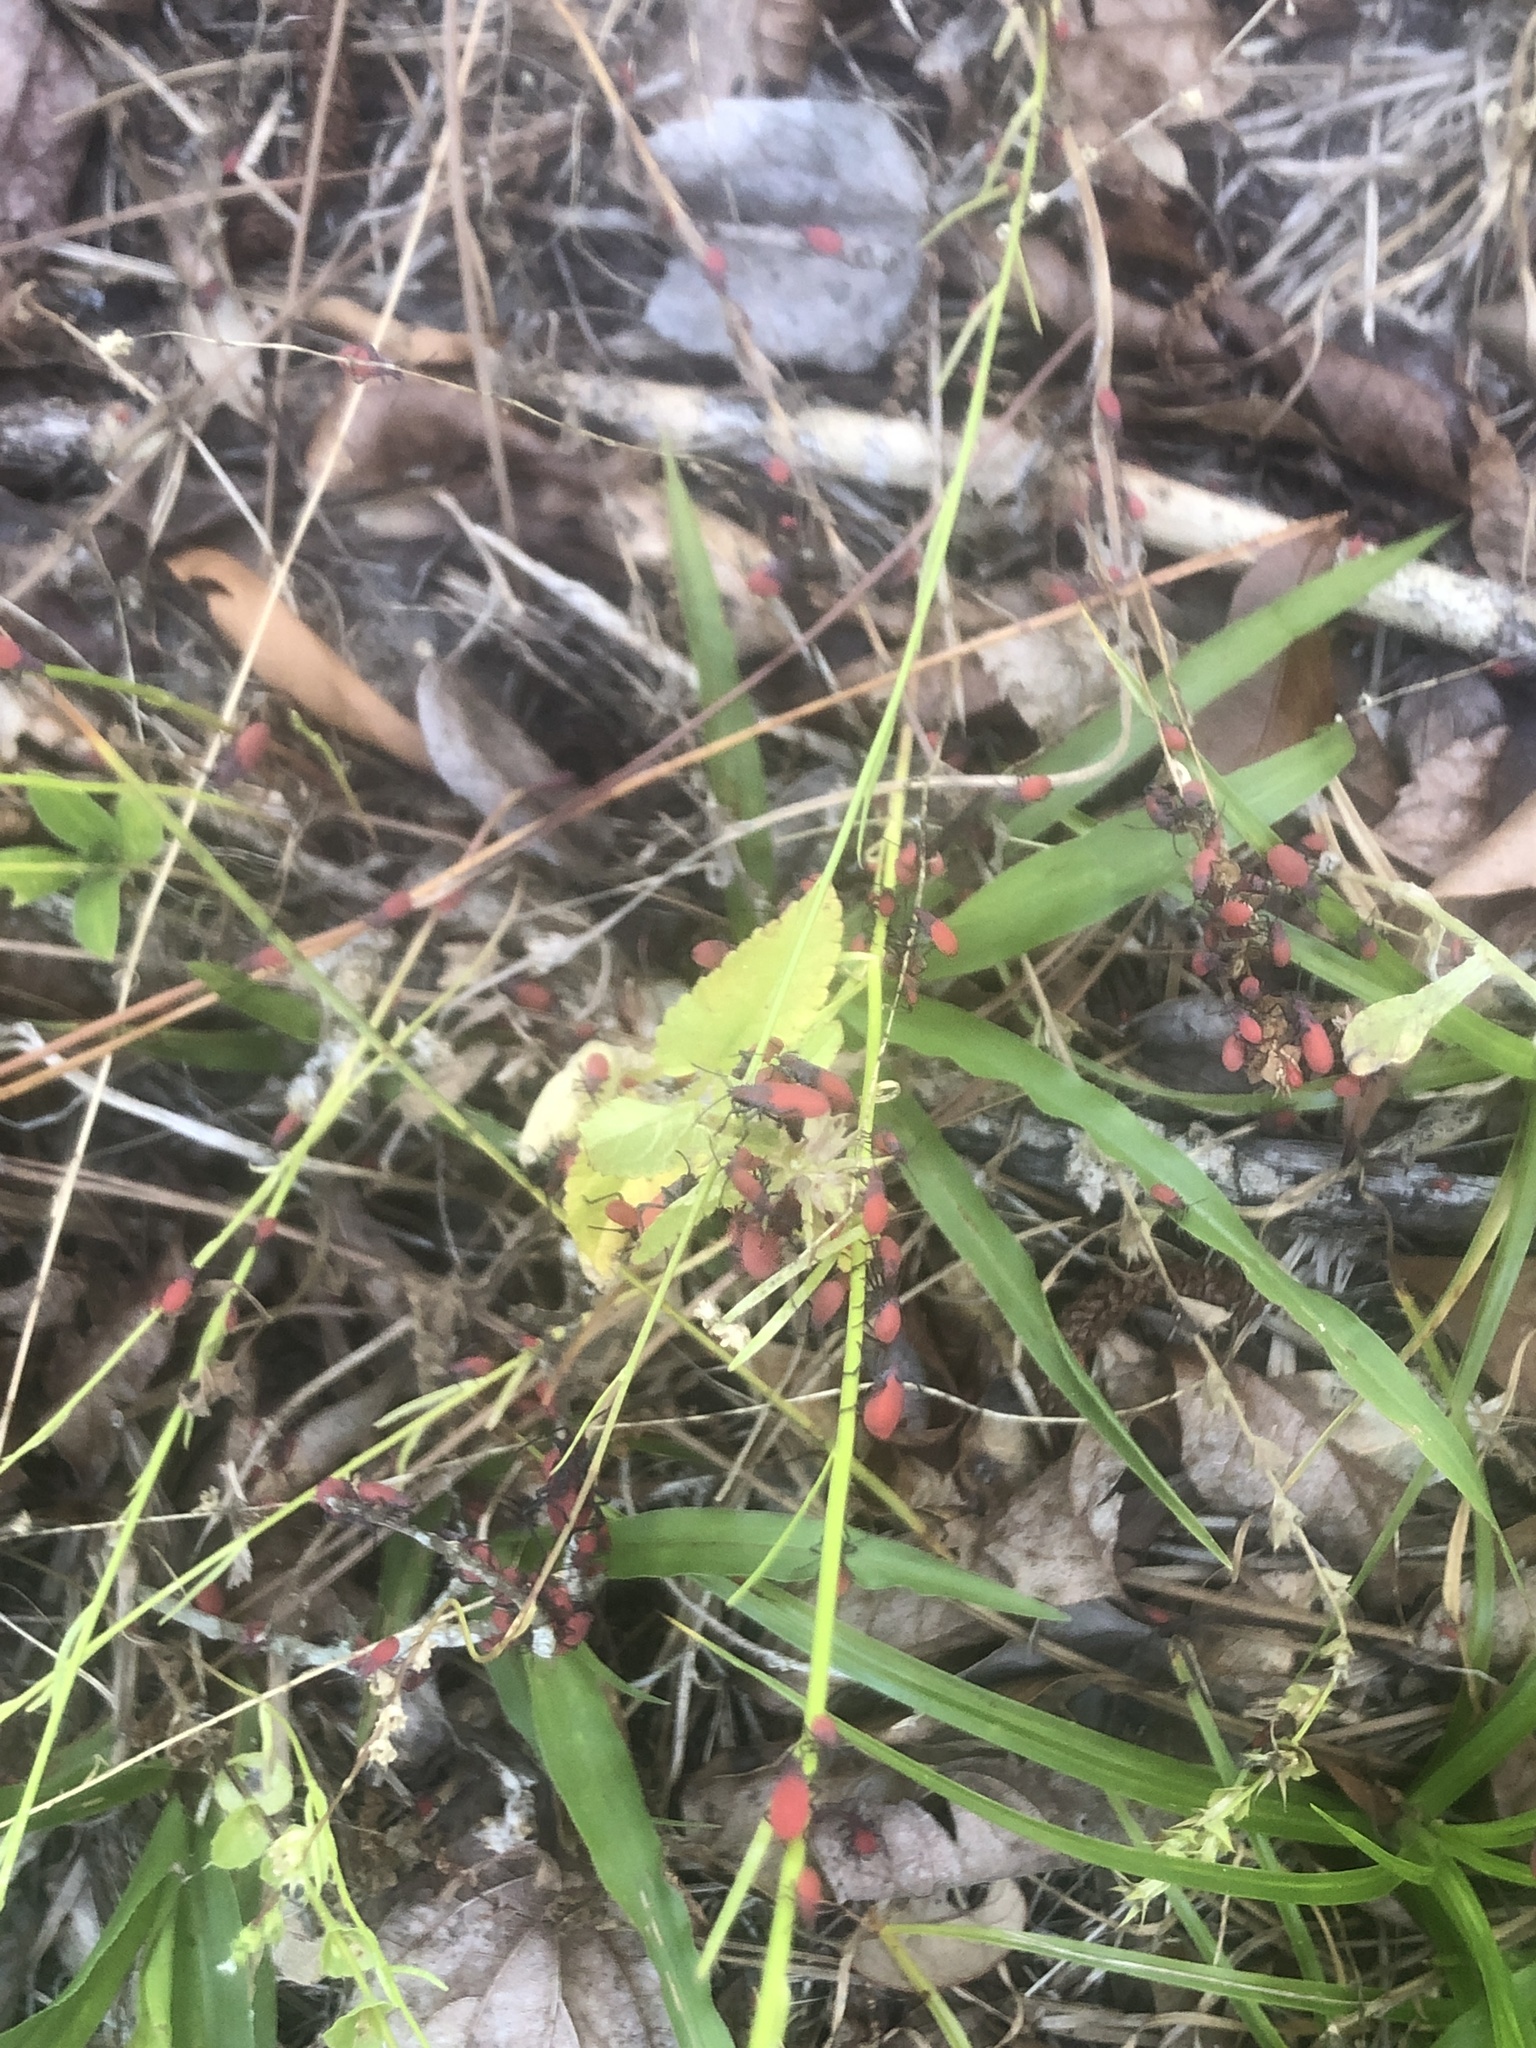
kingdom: Animalia
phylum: Arthropoda
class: Insecta
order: Hemiptera
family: Rhopalidae
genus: Jadera
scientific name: Jadera haematoloma
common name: Red-shouldered bug
